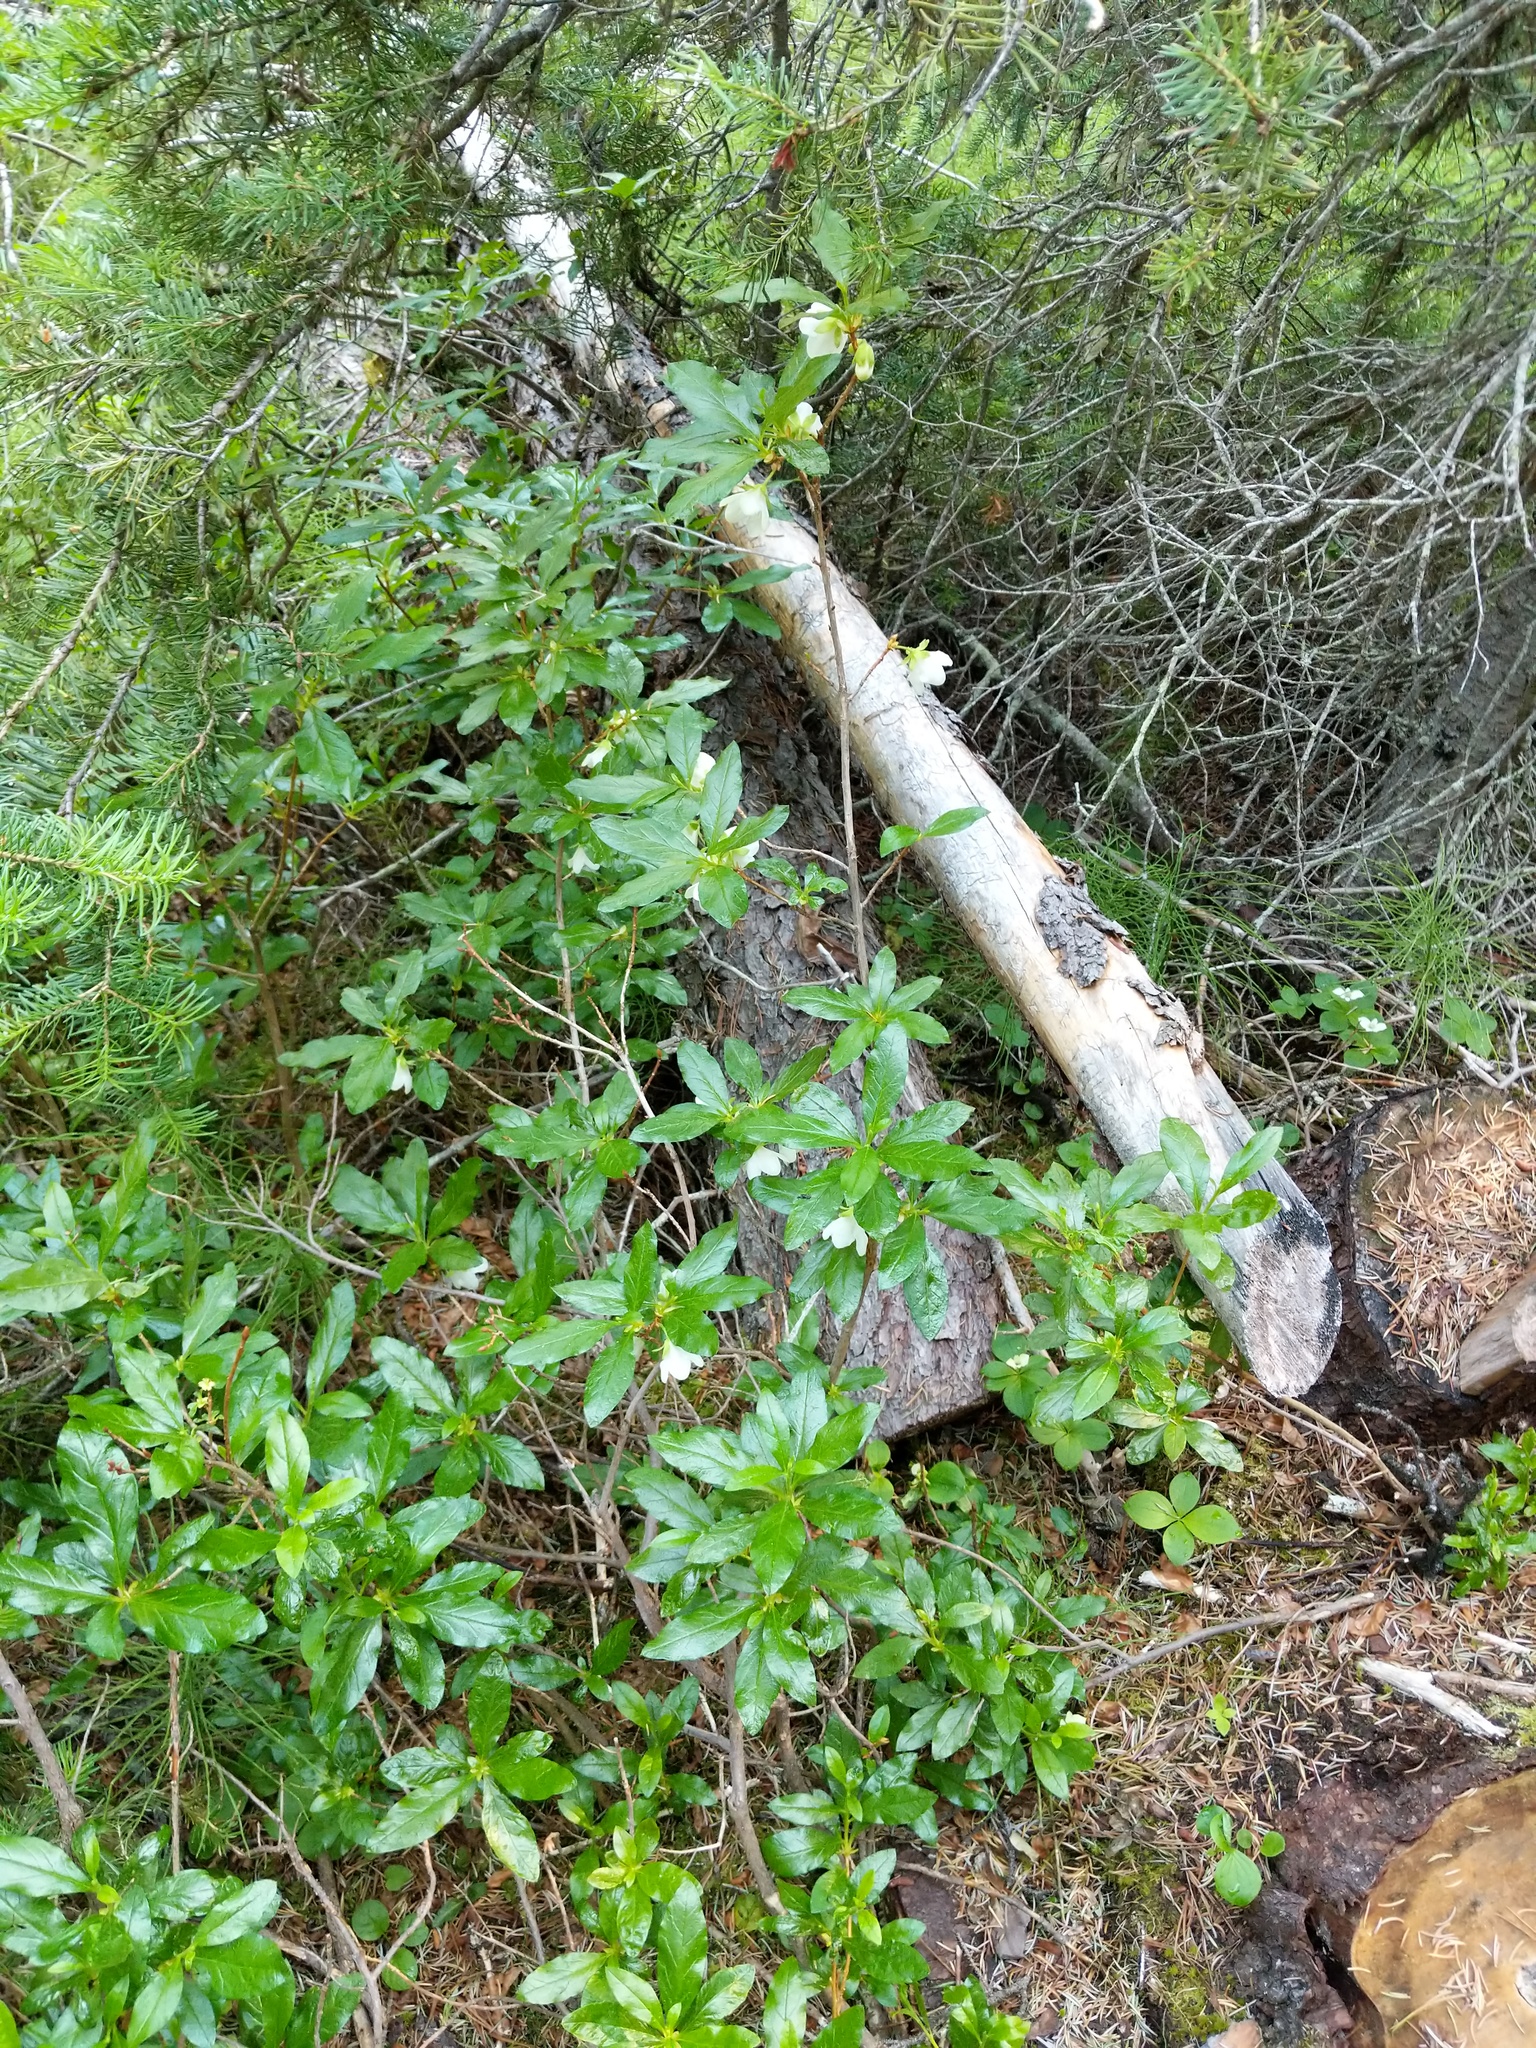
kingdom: Plantae
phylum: Tracheophyta
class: Magnoliopsida
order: Ericales
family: Ericaceae
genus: Rhododendron
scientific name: Rhododendron albiflorum
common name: White rhododendron
